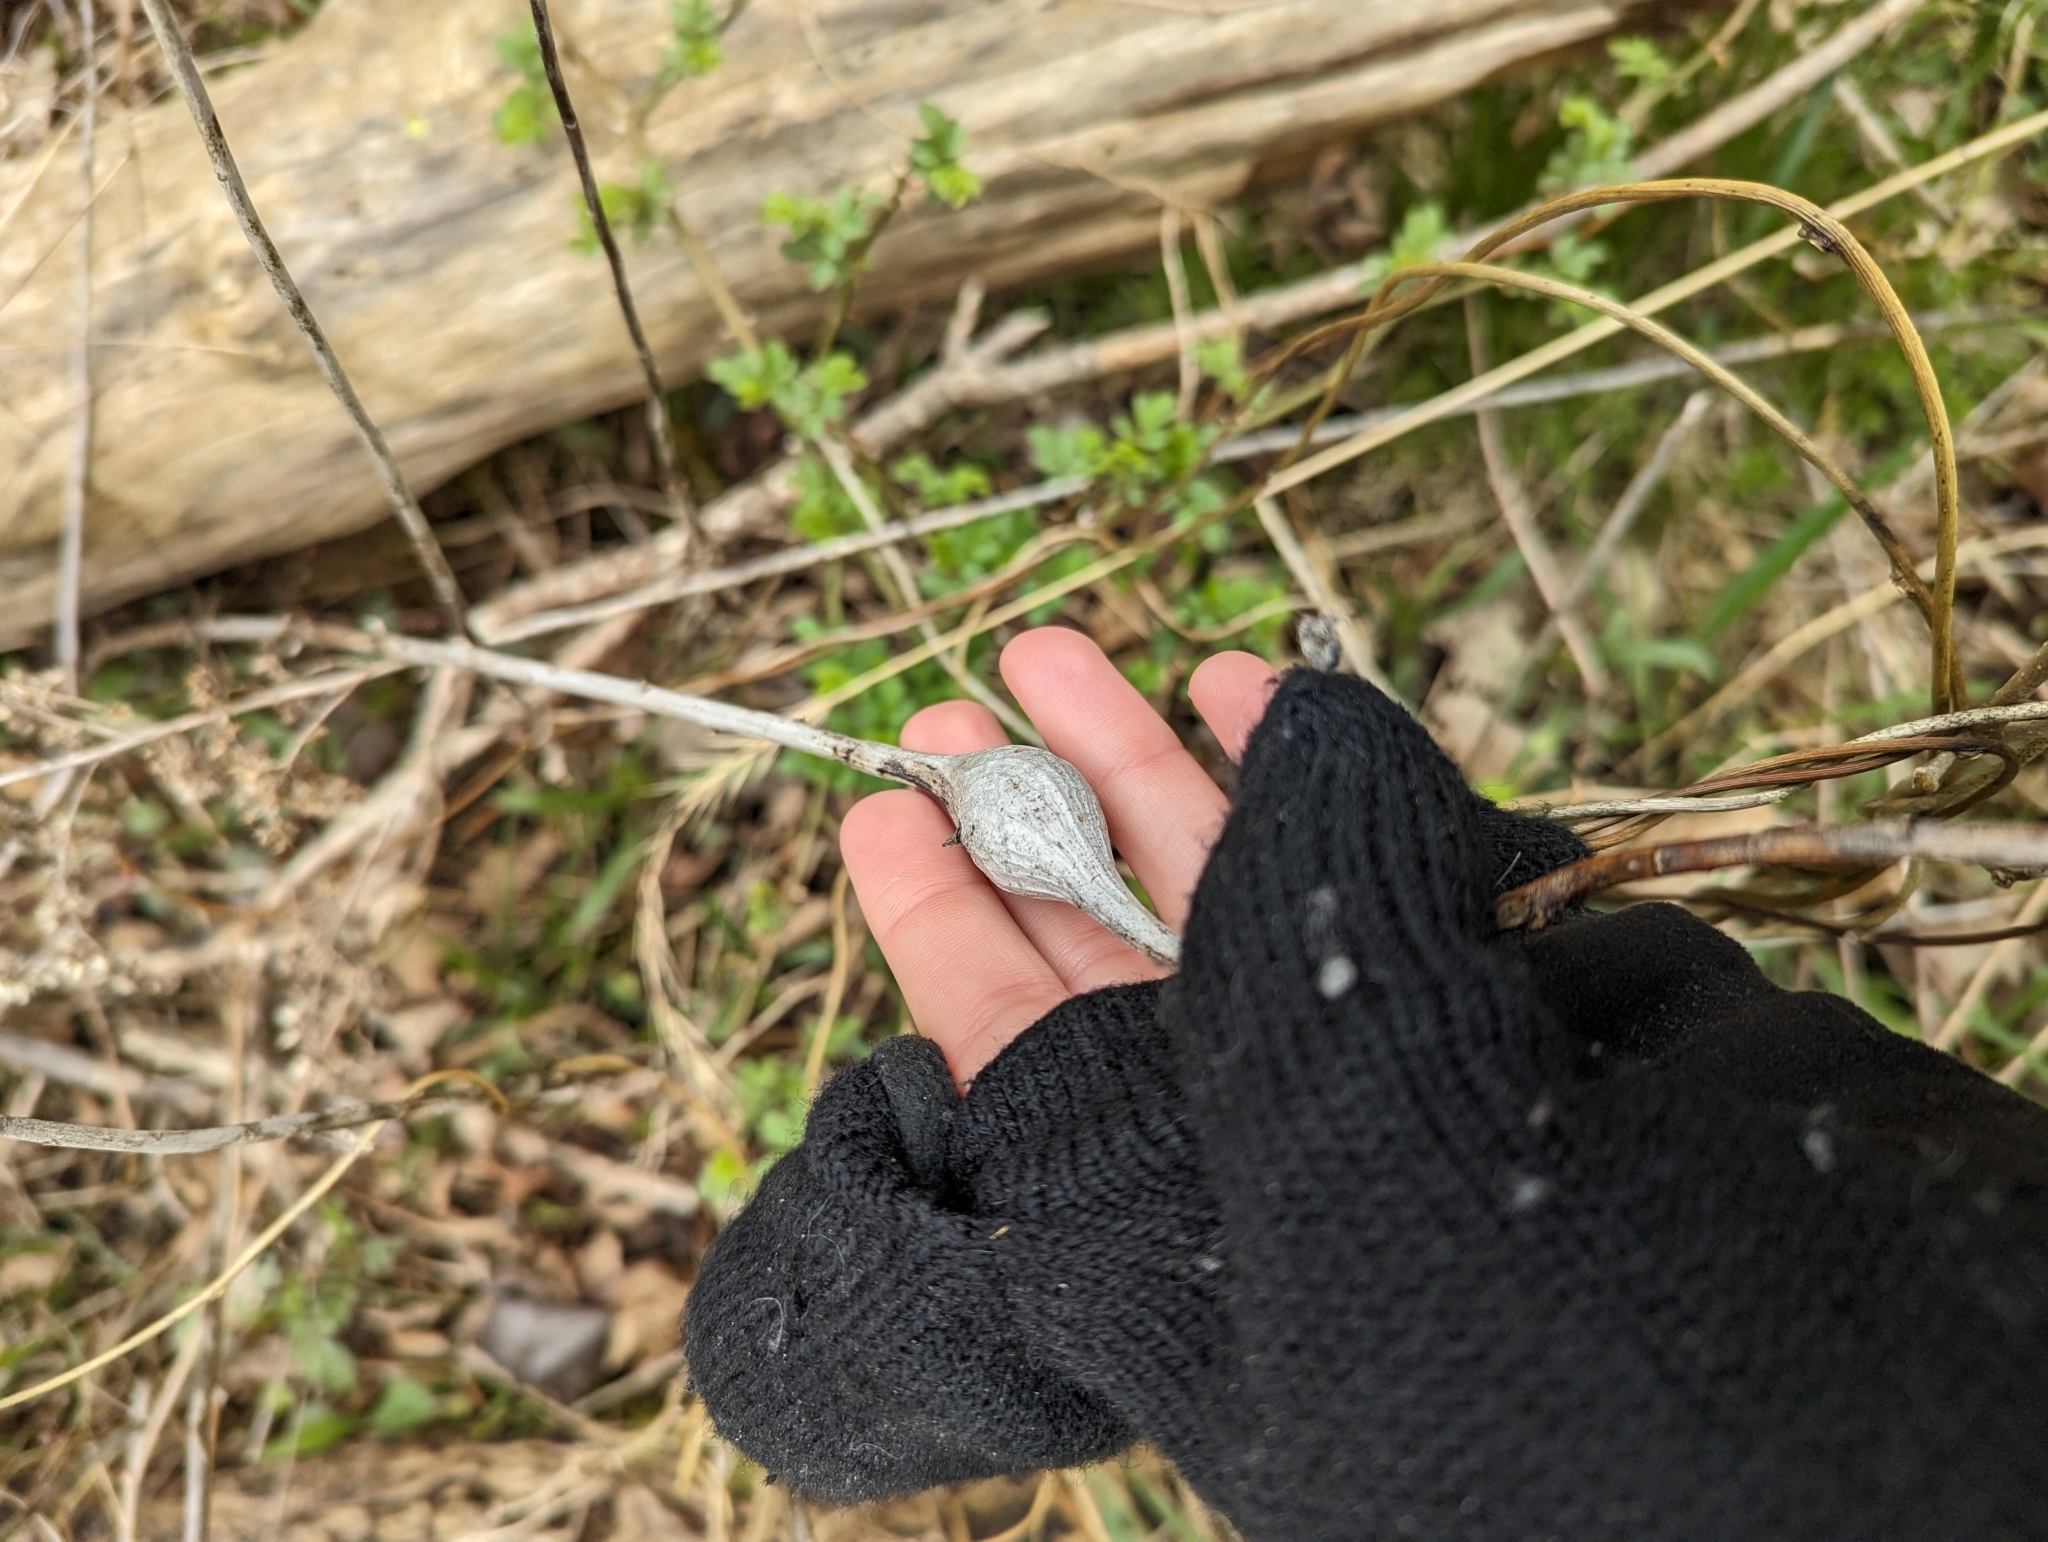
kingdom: Animalia
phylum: Arthropoda
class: Insecta
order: Diptera
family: Tephritidae
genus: Eurosta
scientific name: Eurosta solidaginis
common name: Goldenrod gall fly
